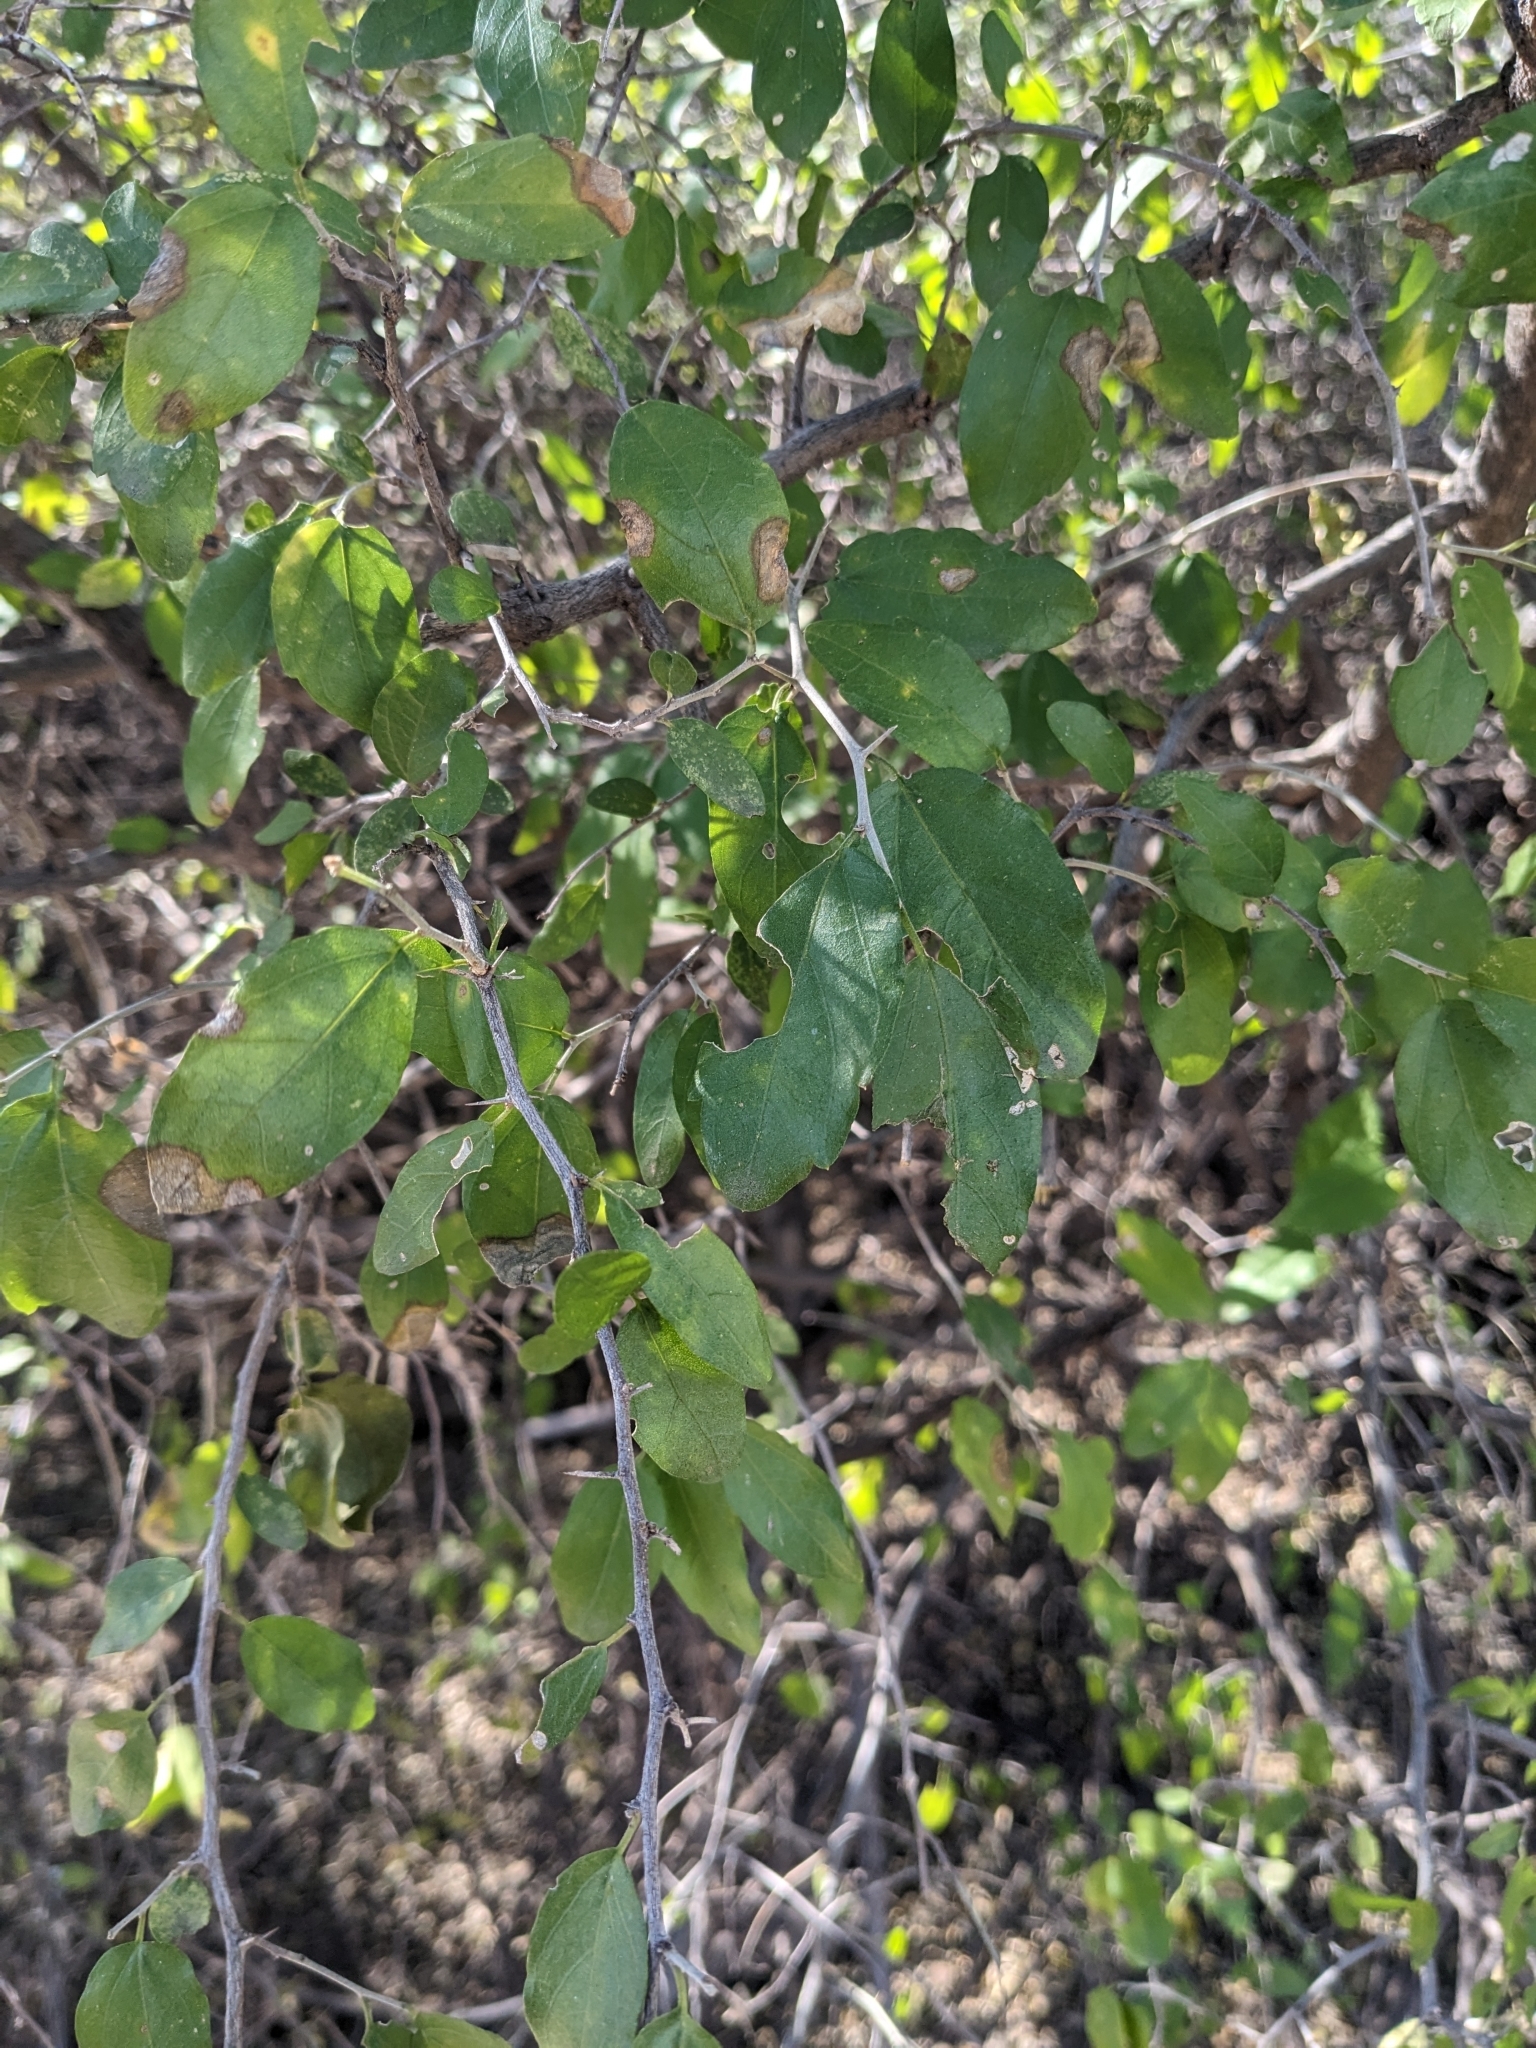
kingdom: Plantae
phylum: Tracheophyta
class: Magnoliopsida
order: Rosales
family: Cannabaceae
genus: Celtis
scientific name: Celtis pallida
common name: Desert hackberry
